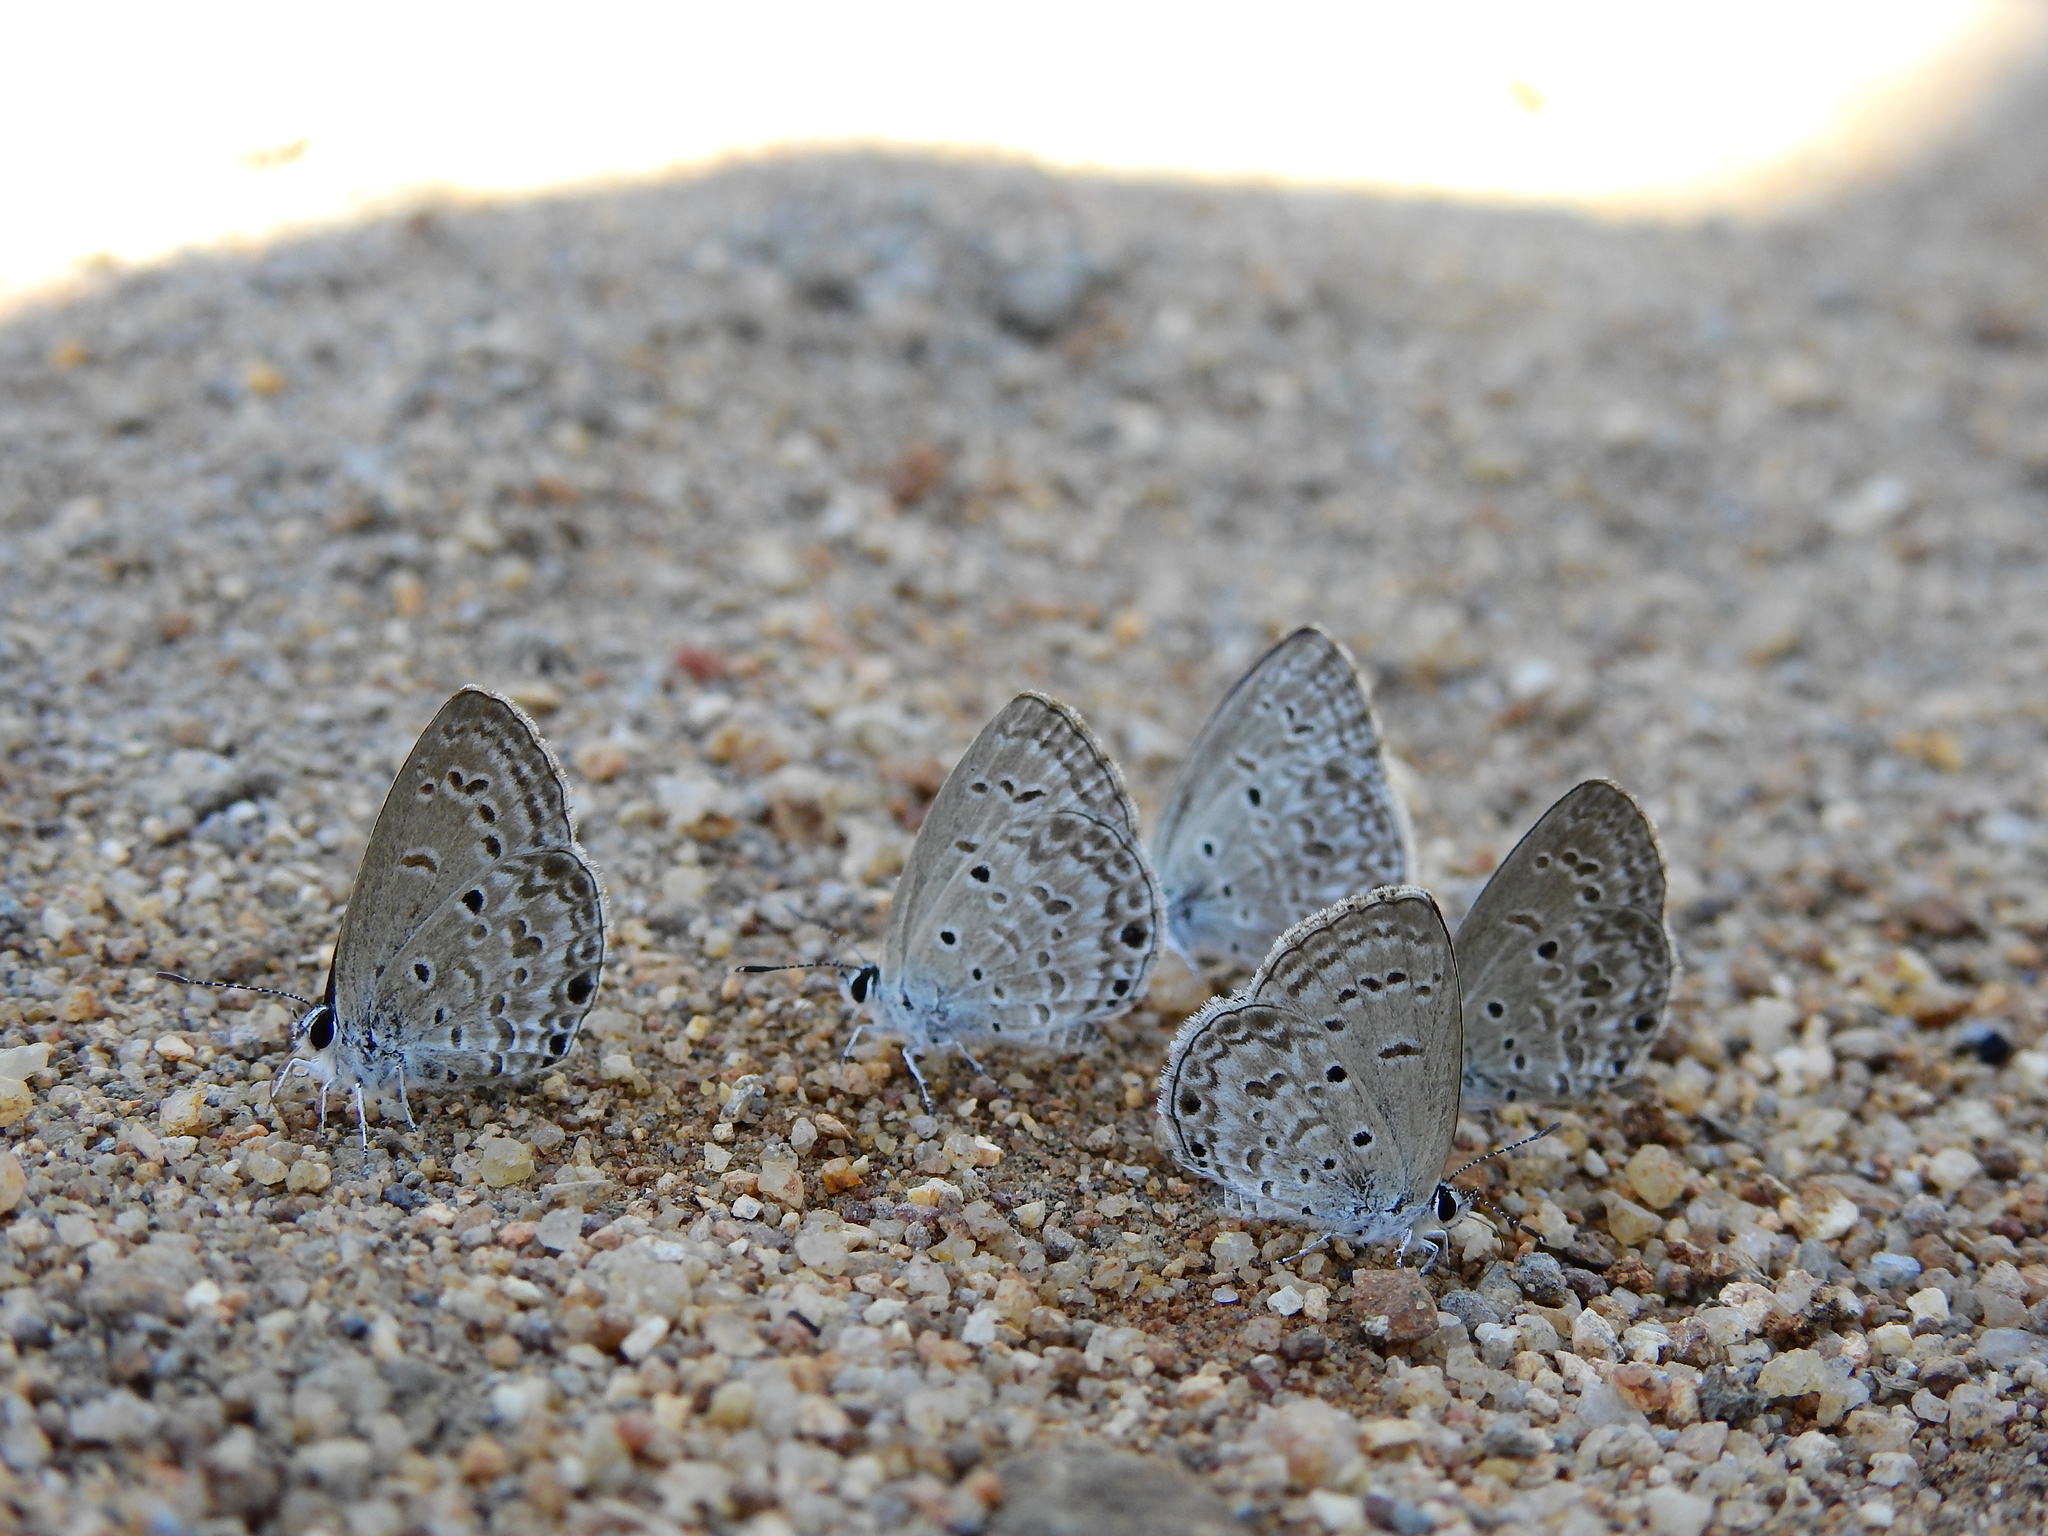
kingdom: Animalia
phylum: Arthropoda
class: Insecta
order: Lepidoptera
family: Lycaenidae
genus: Chilades
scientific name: Chilades laius
